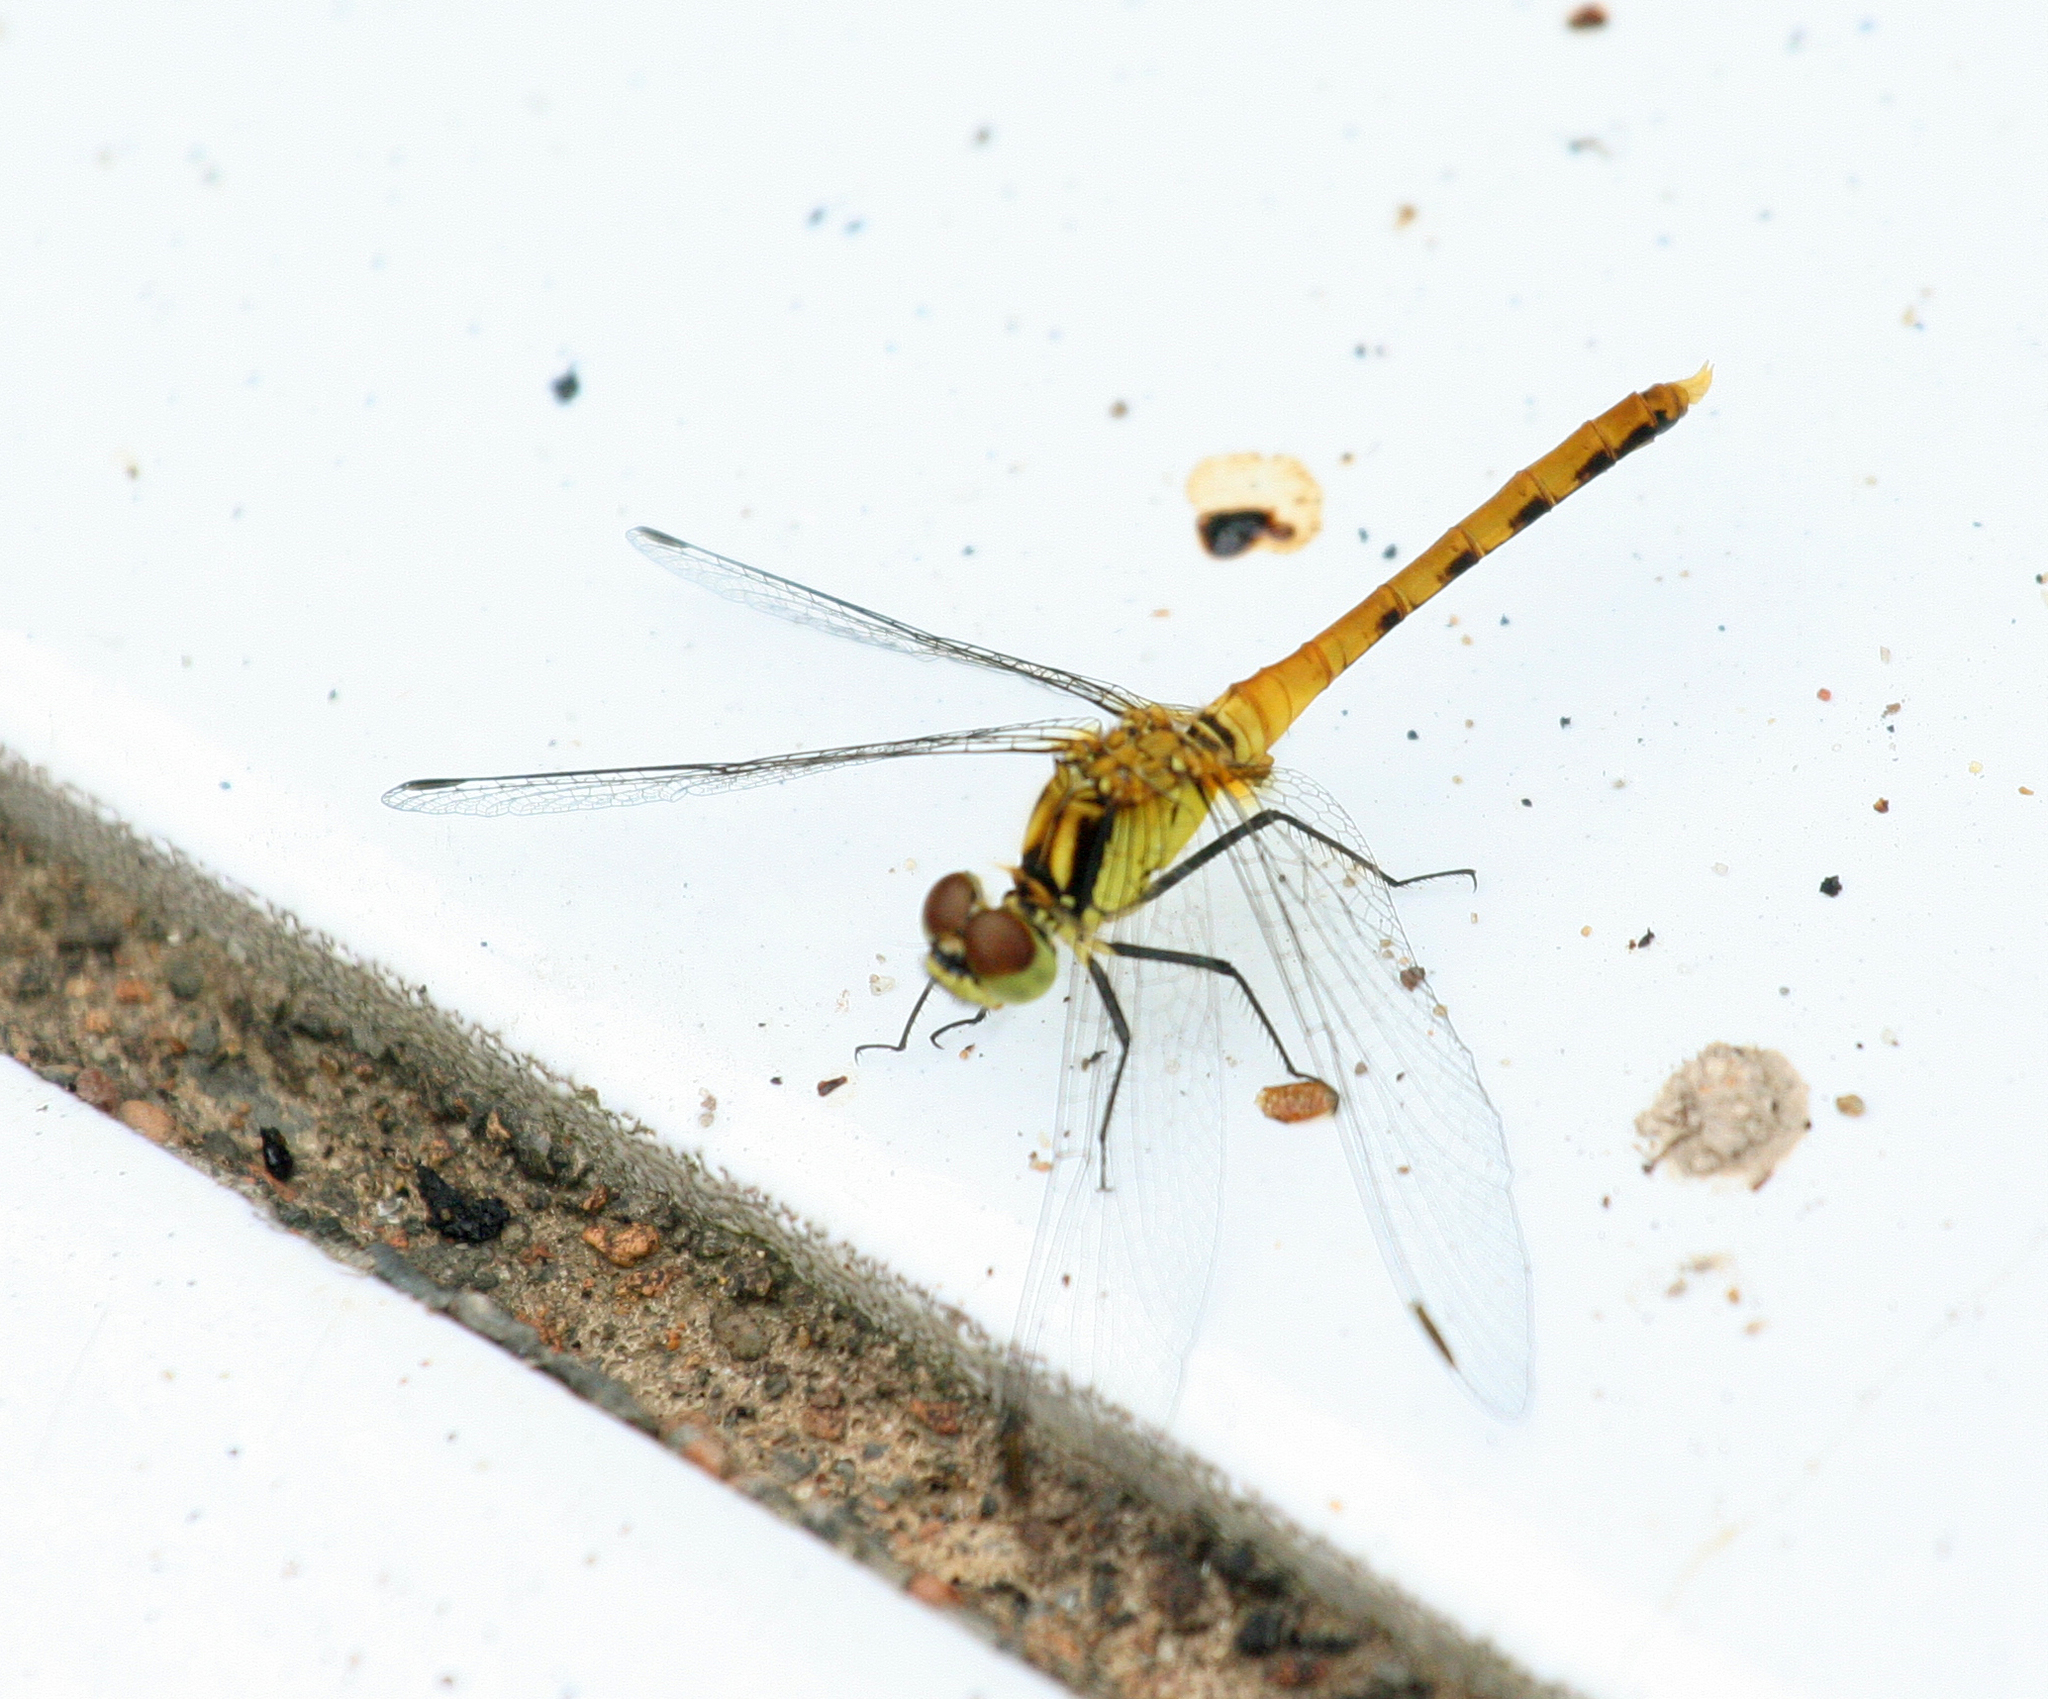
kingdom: Animalia
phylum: Arthropoda
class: Insecta
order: Odonata
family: Libellulidae
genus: Sympetrum
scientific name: Sympetrum eroticum
